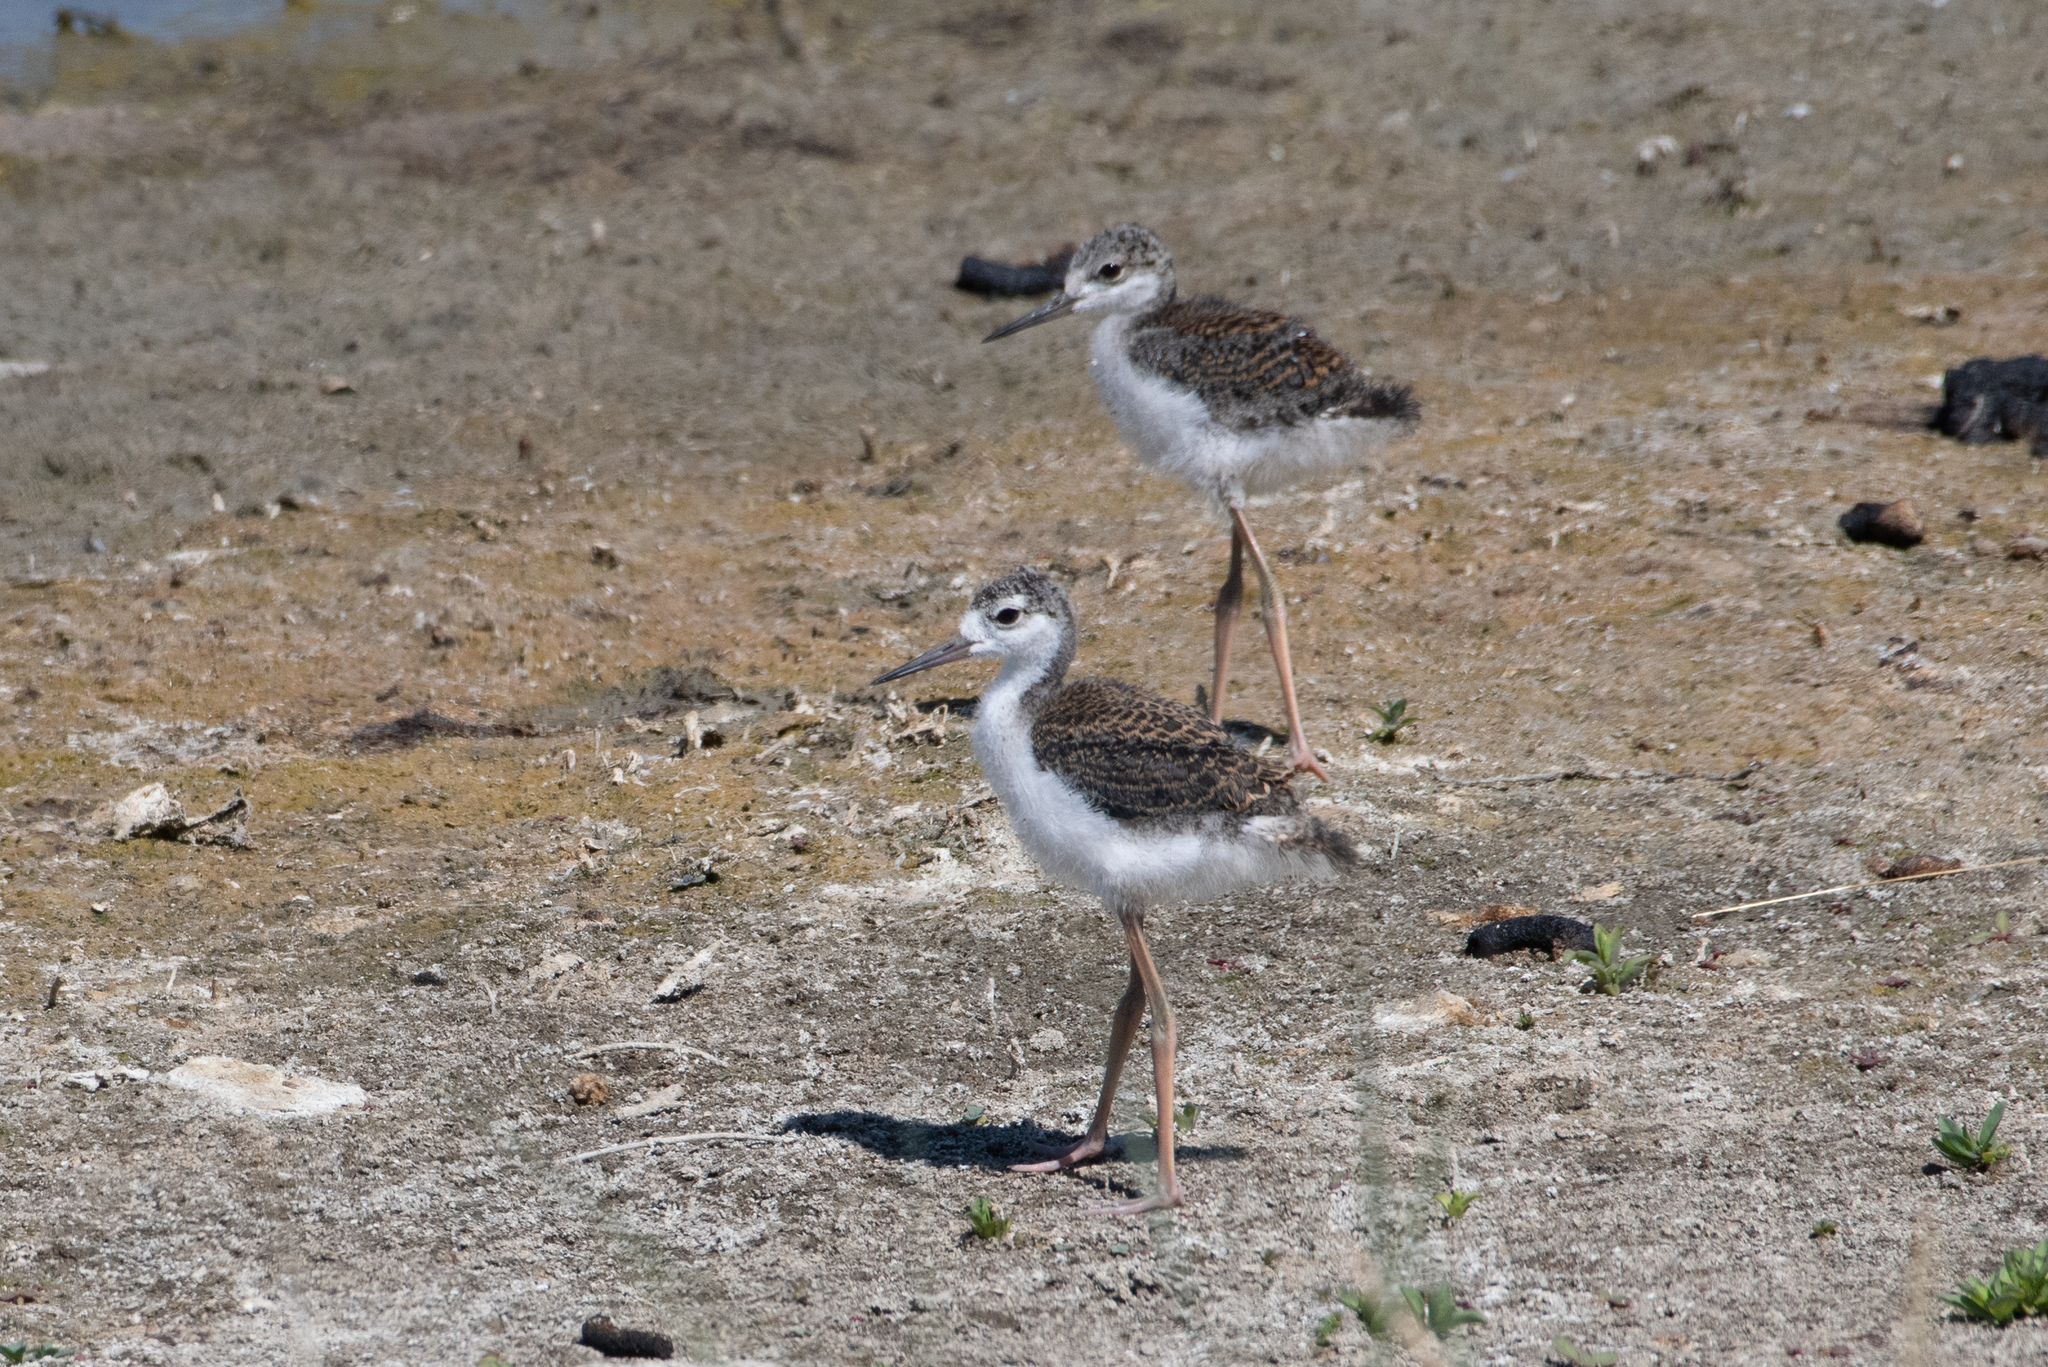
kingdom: Animalia
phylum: Chordata
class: Aves
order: Charadriiformes
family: Recurvirostridae
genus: Himantopus
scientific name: Himantopus mexicanus
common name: Black-necked stilt
